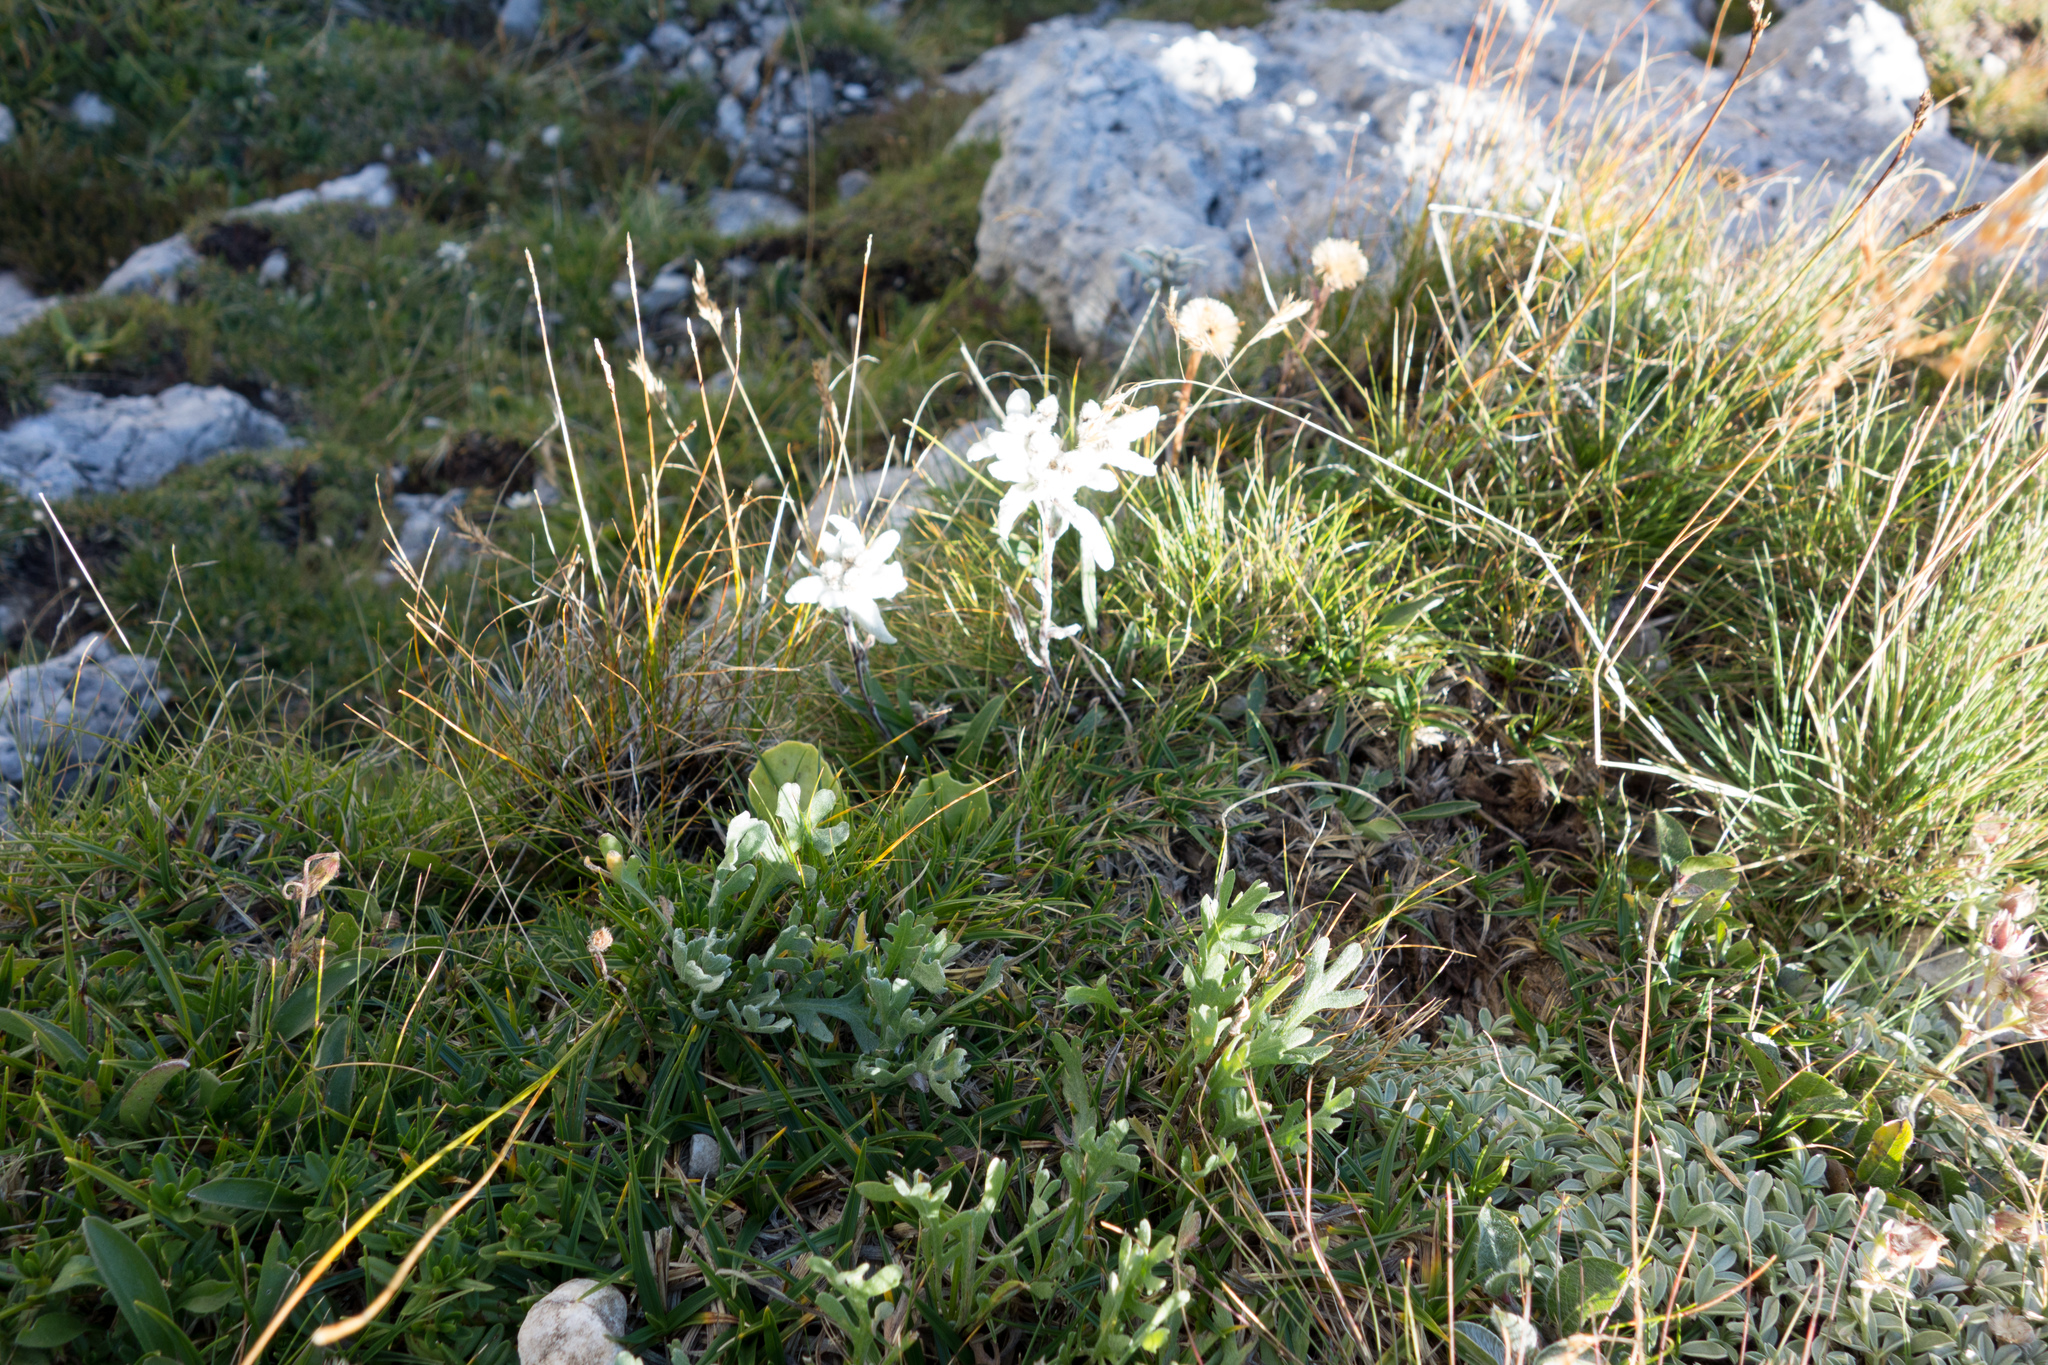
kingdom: Plantae
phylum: Tracheophyta
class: Magnoliopsida
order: Asterales
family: Asteraceae
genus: Leontopodium
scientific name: Leontopodium nivale
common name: Edelweiss
